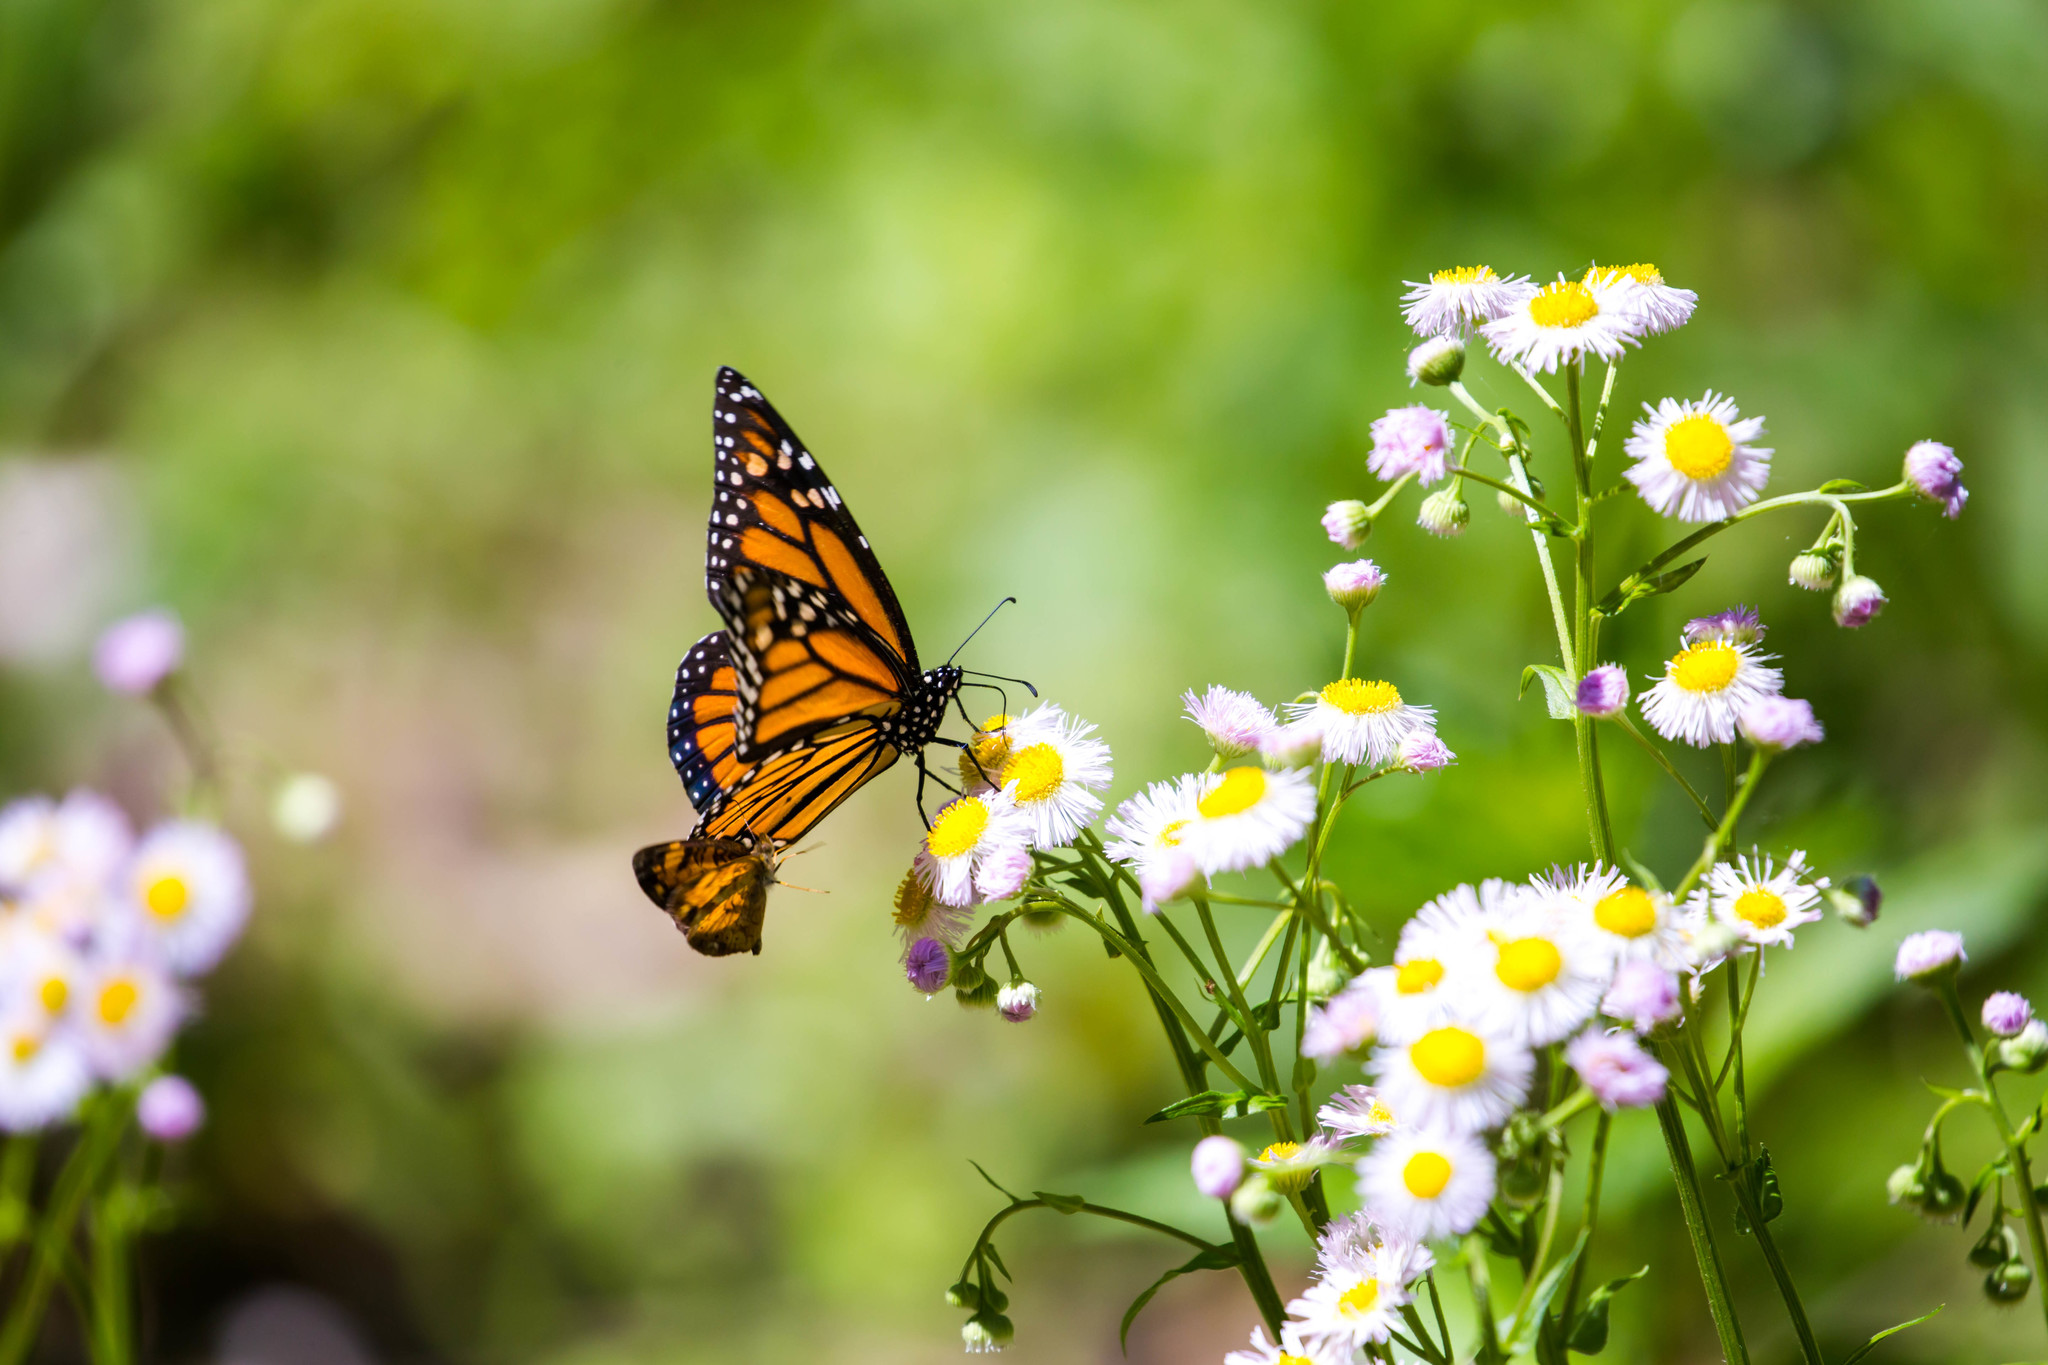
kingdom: Animalia
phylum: Arthropoda
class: Insecta
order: Lepidoptera
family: Nymphalidae
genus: Danaus
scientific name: Danaus plexippus
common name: Monarch
